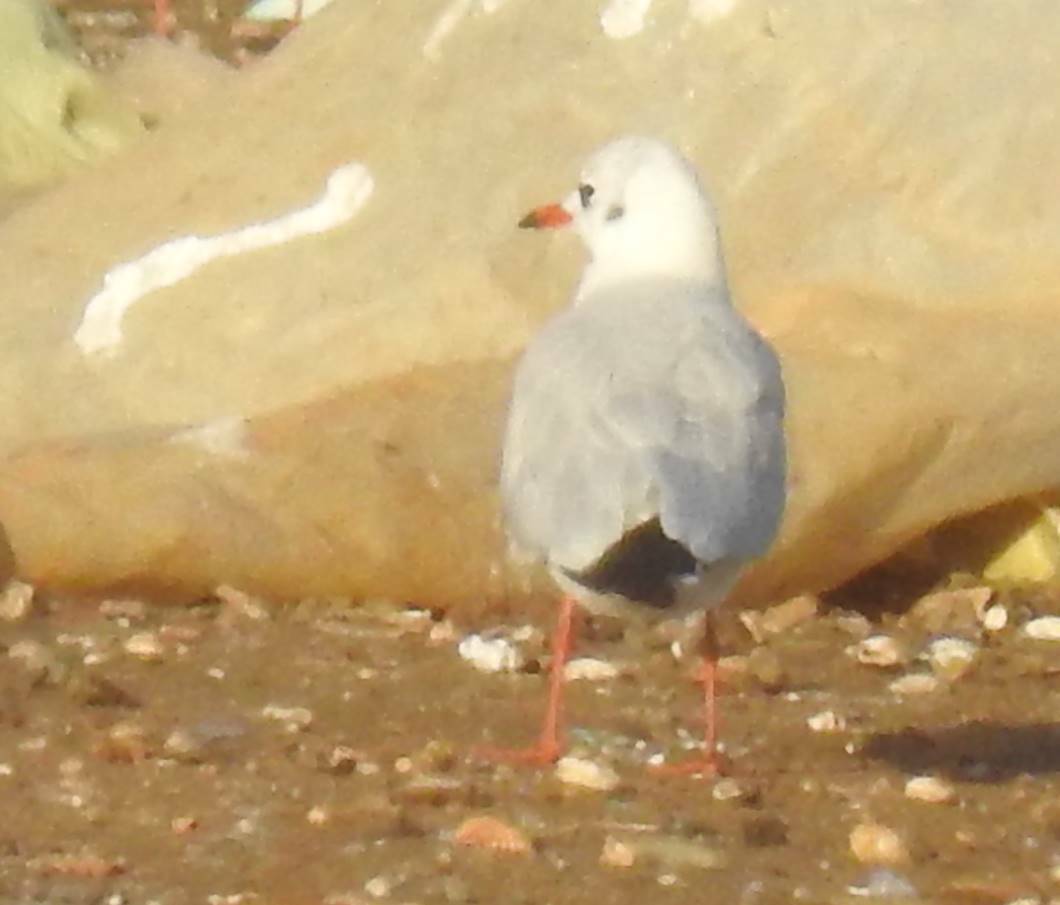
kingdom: Animalia
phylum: Chordata
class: Aves
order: Charadriiformes
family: Laridae
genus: Chroicocephalus
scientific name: Chroicocephalus ridibundus
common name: Black-headed gull
